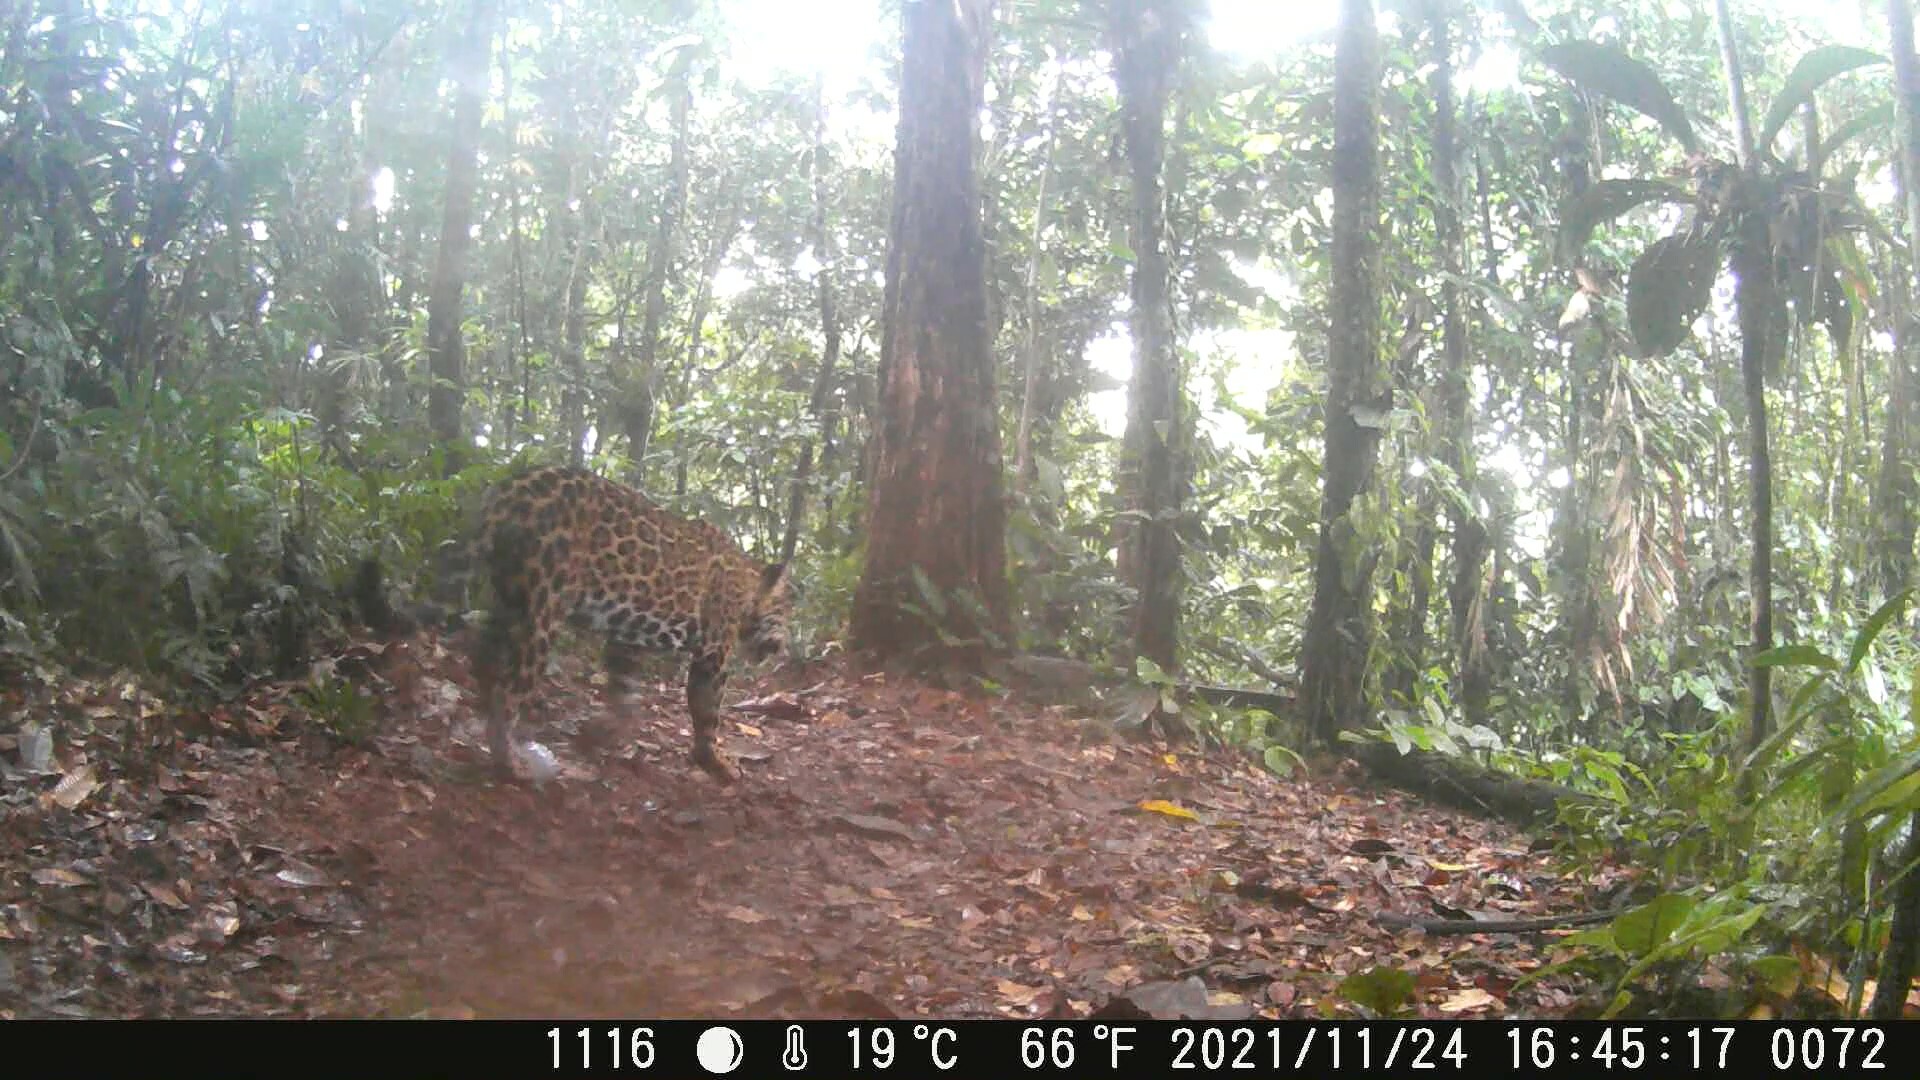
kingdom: Animalia
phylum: Chordata
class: Mammalia
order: Carnivora
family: Felidae
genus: Panthera
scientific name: Panthera onca
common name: Jaguar
